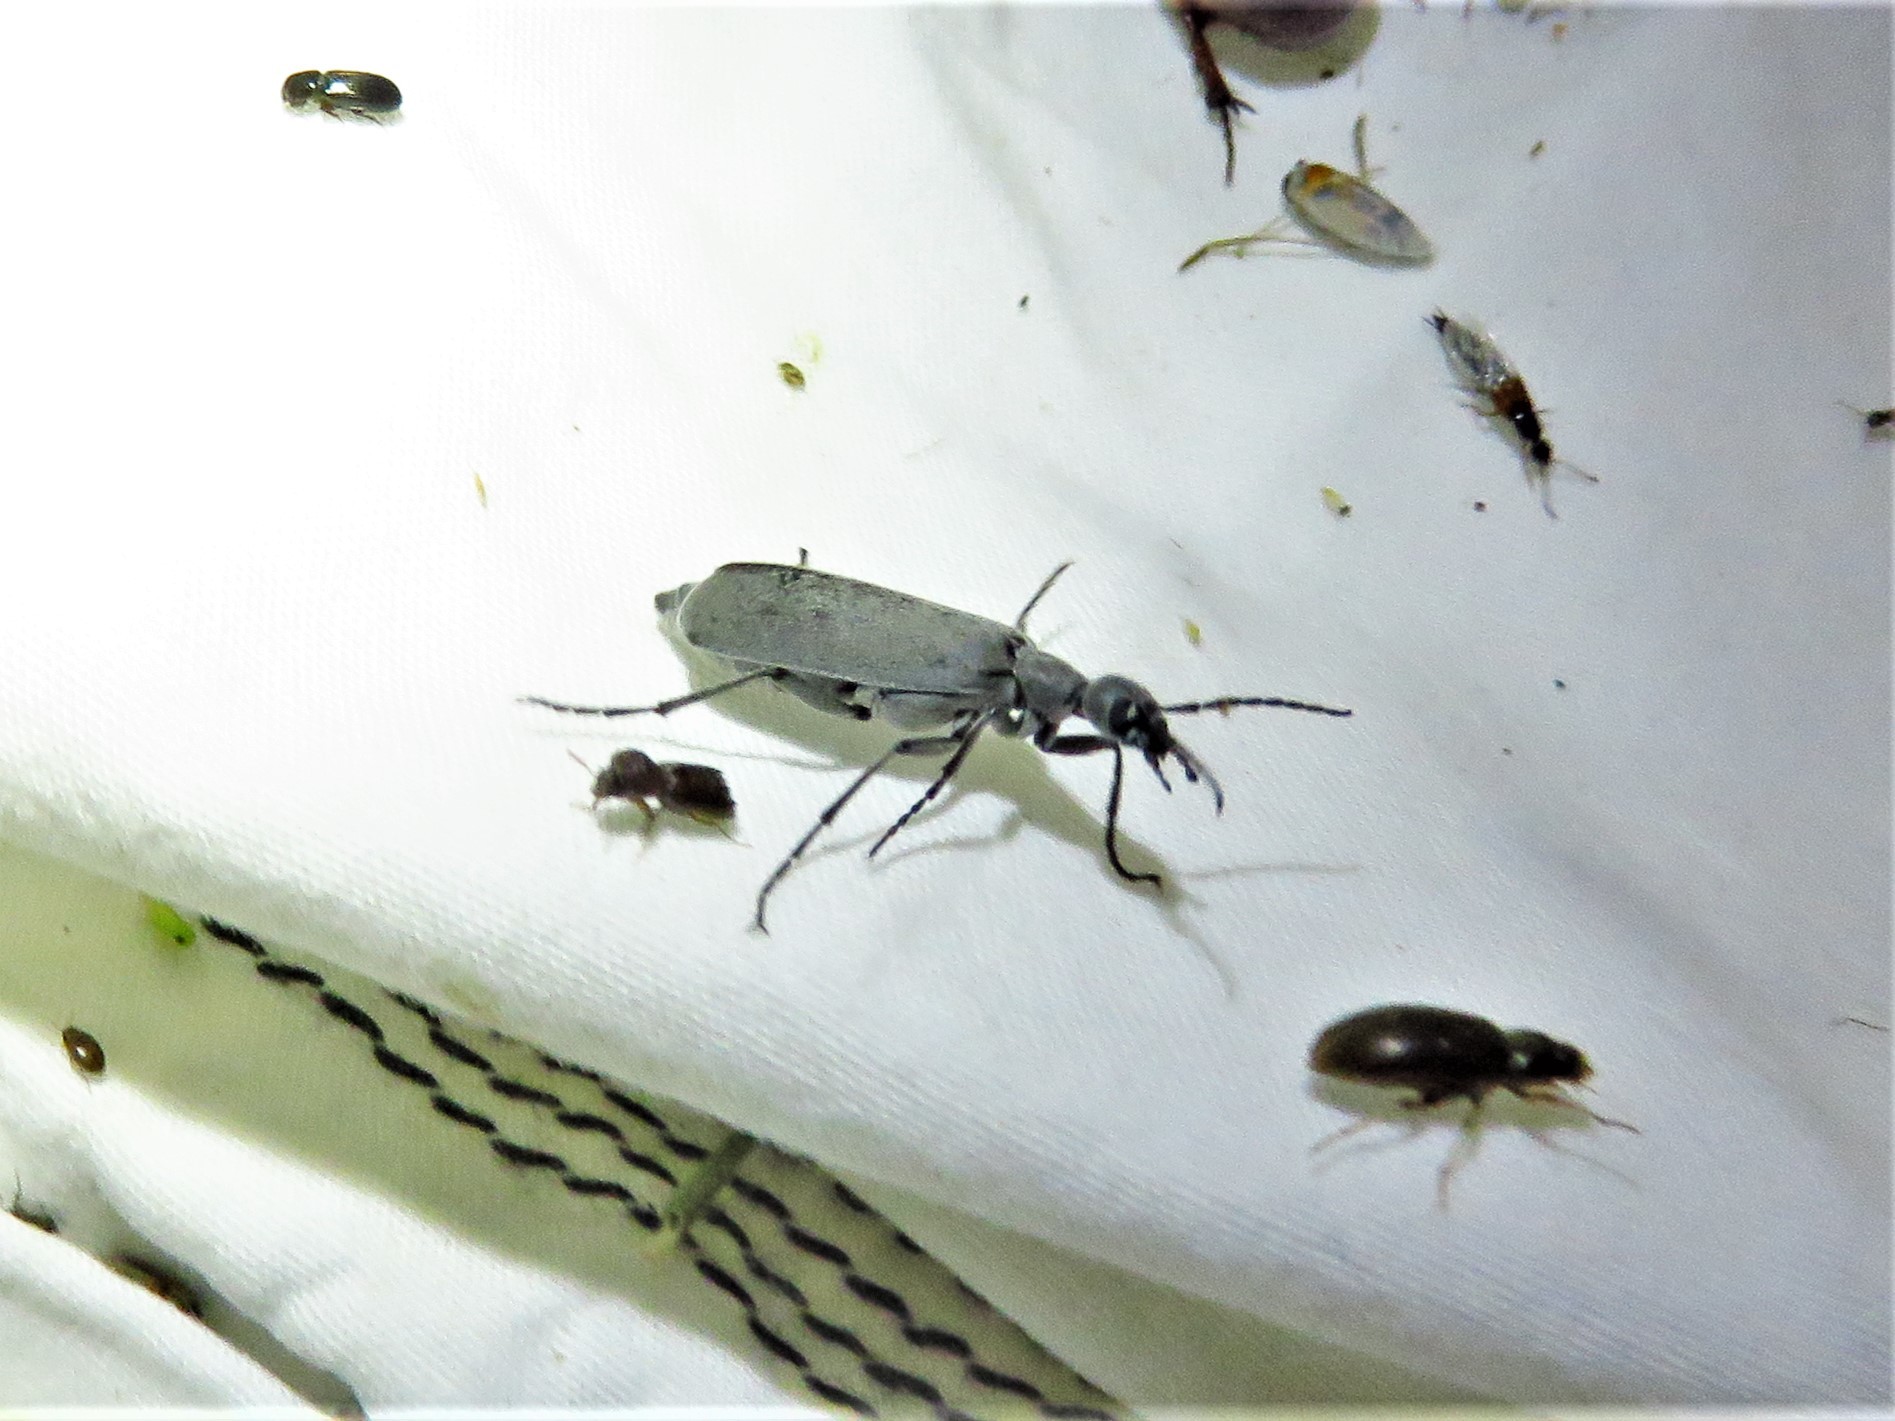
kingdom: Animalia
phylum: Arthropoda
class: Insecta
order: Coleoptera
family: Meloidae
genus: Epicauta
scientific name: Epicauta
